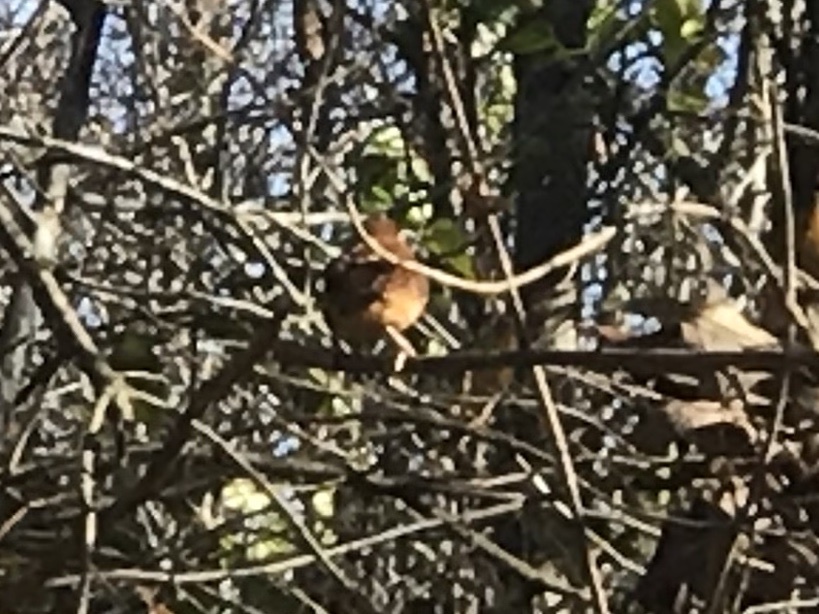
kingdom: Animalia
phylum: Chordata
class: Aves
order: Passeriformes
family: Troglodytidae
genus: Thryothorus
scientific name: Thryothorus ludovicianus
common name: Carolina wren
